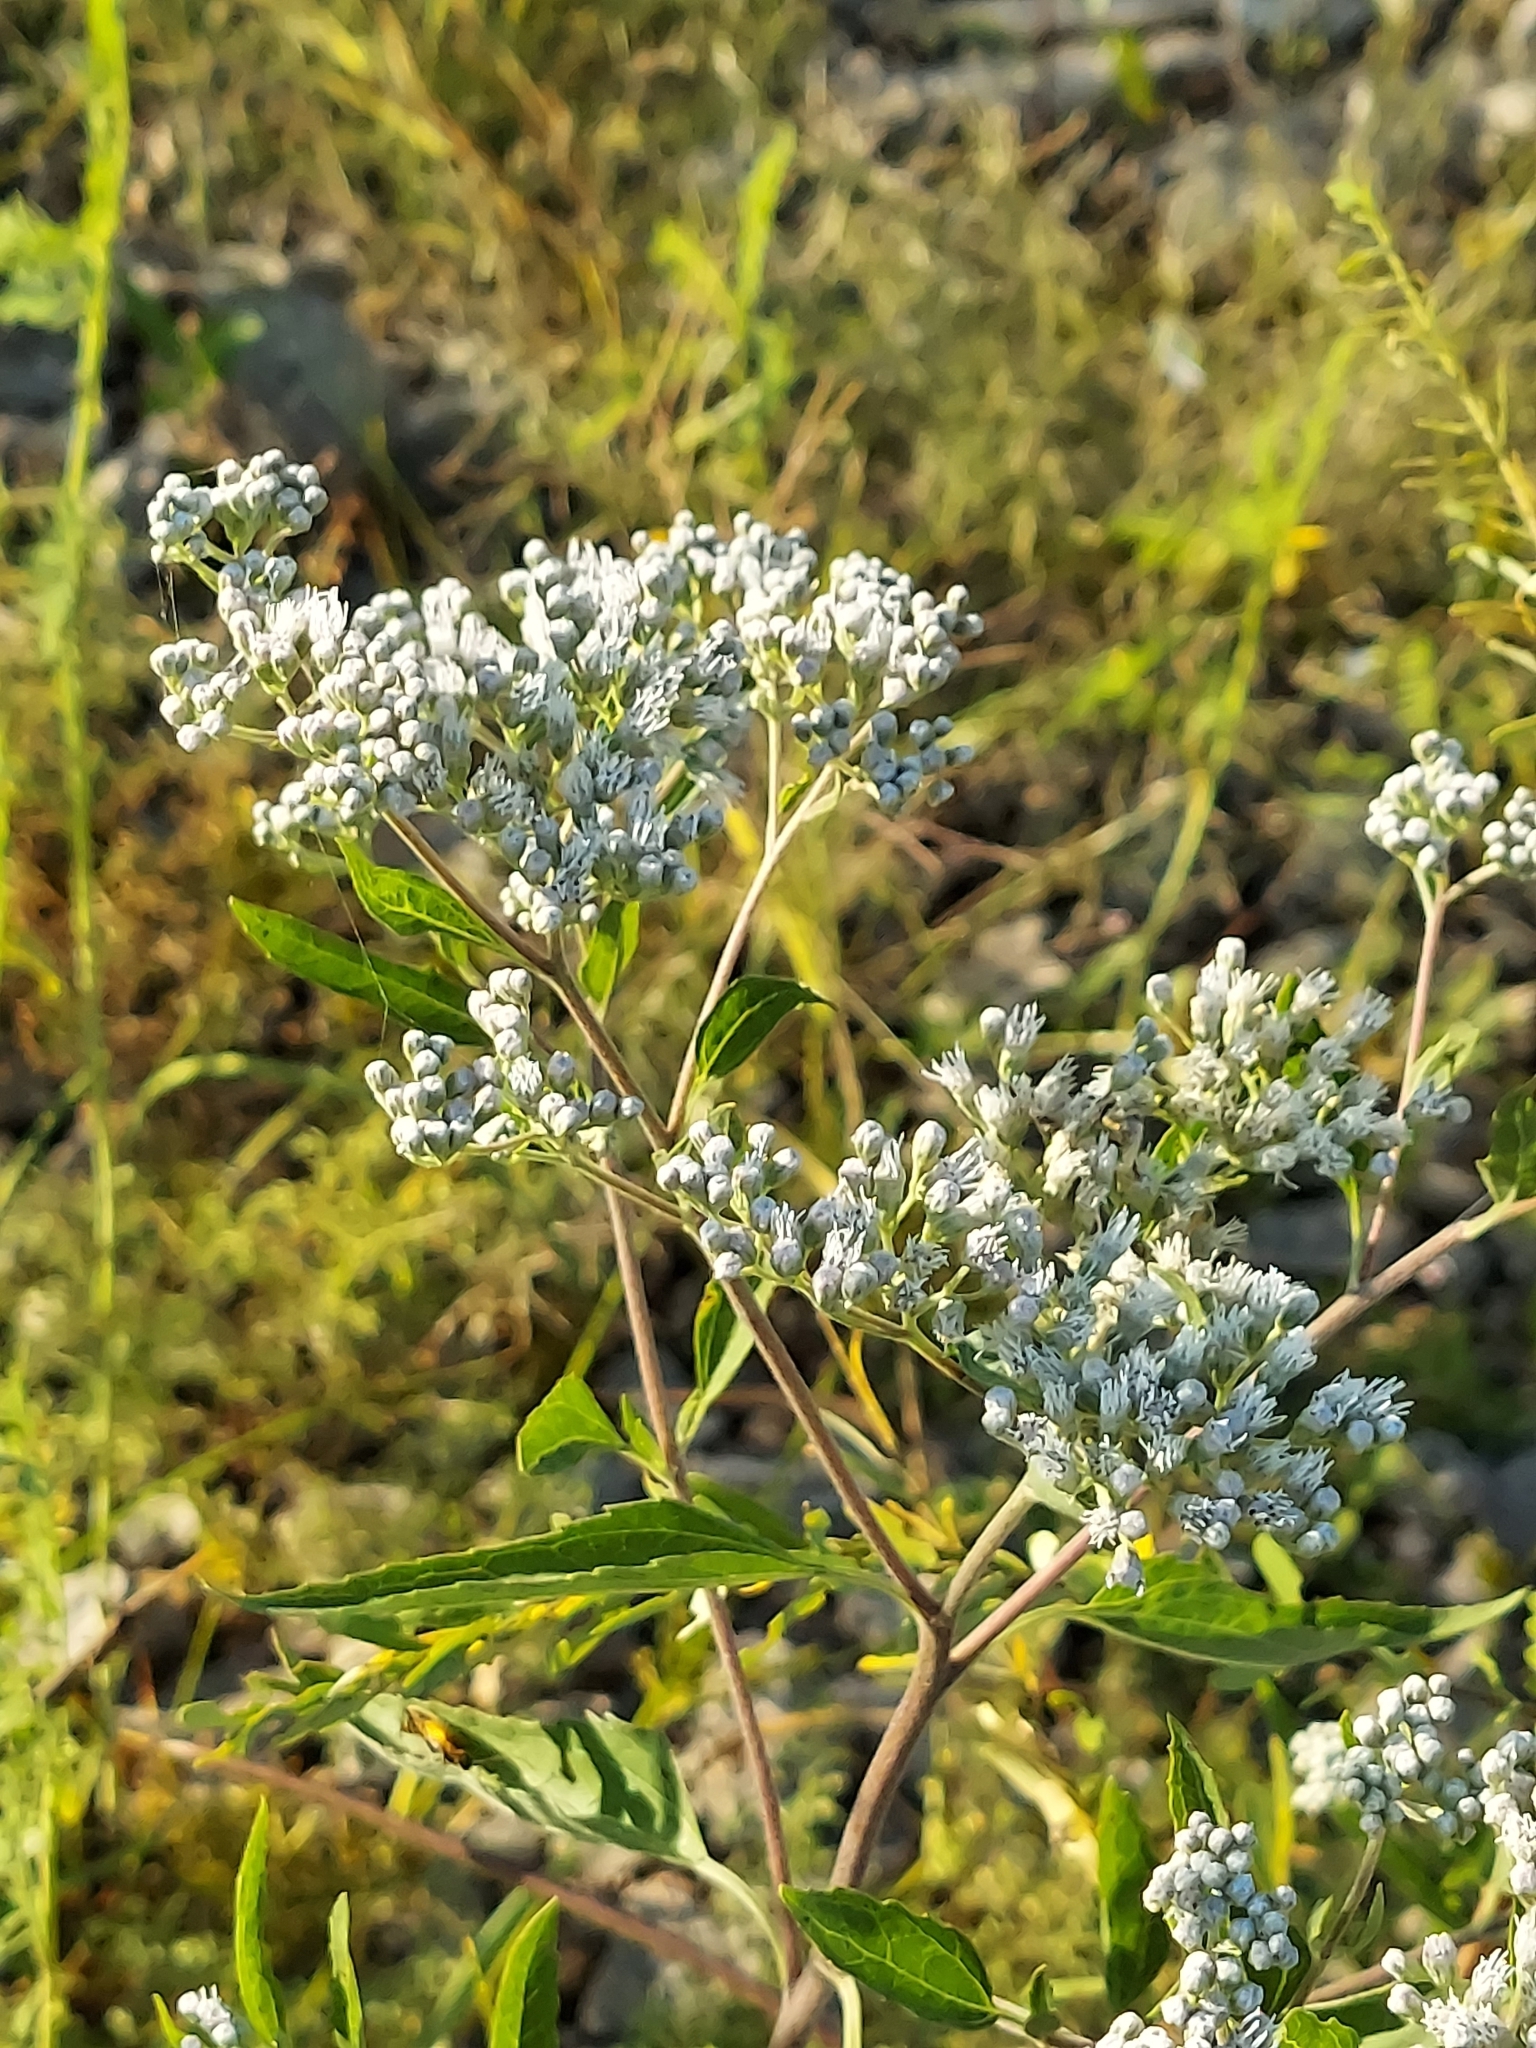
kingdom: Plantae
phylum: Tracheophyta
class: Magnoliopsida
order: Asterales
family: Asteraceae
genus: Eupatorium
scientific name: Eupatorium serotinum
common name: Late boneset
